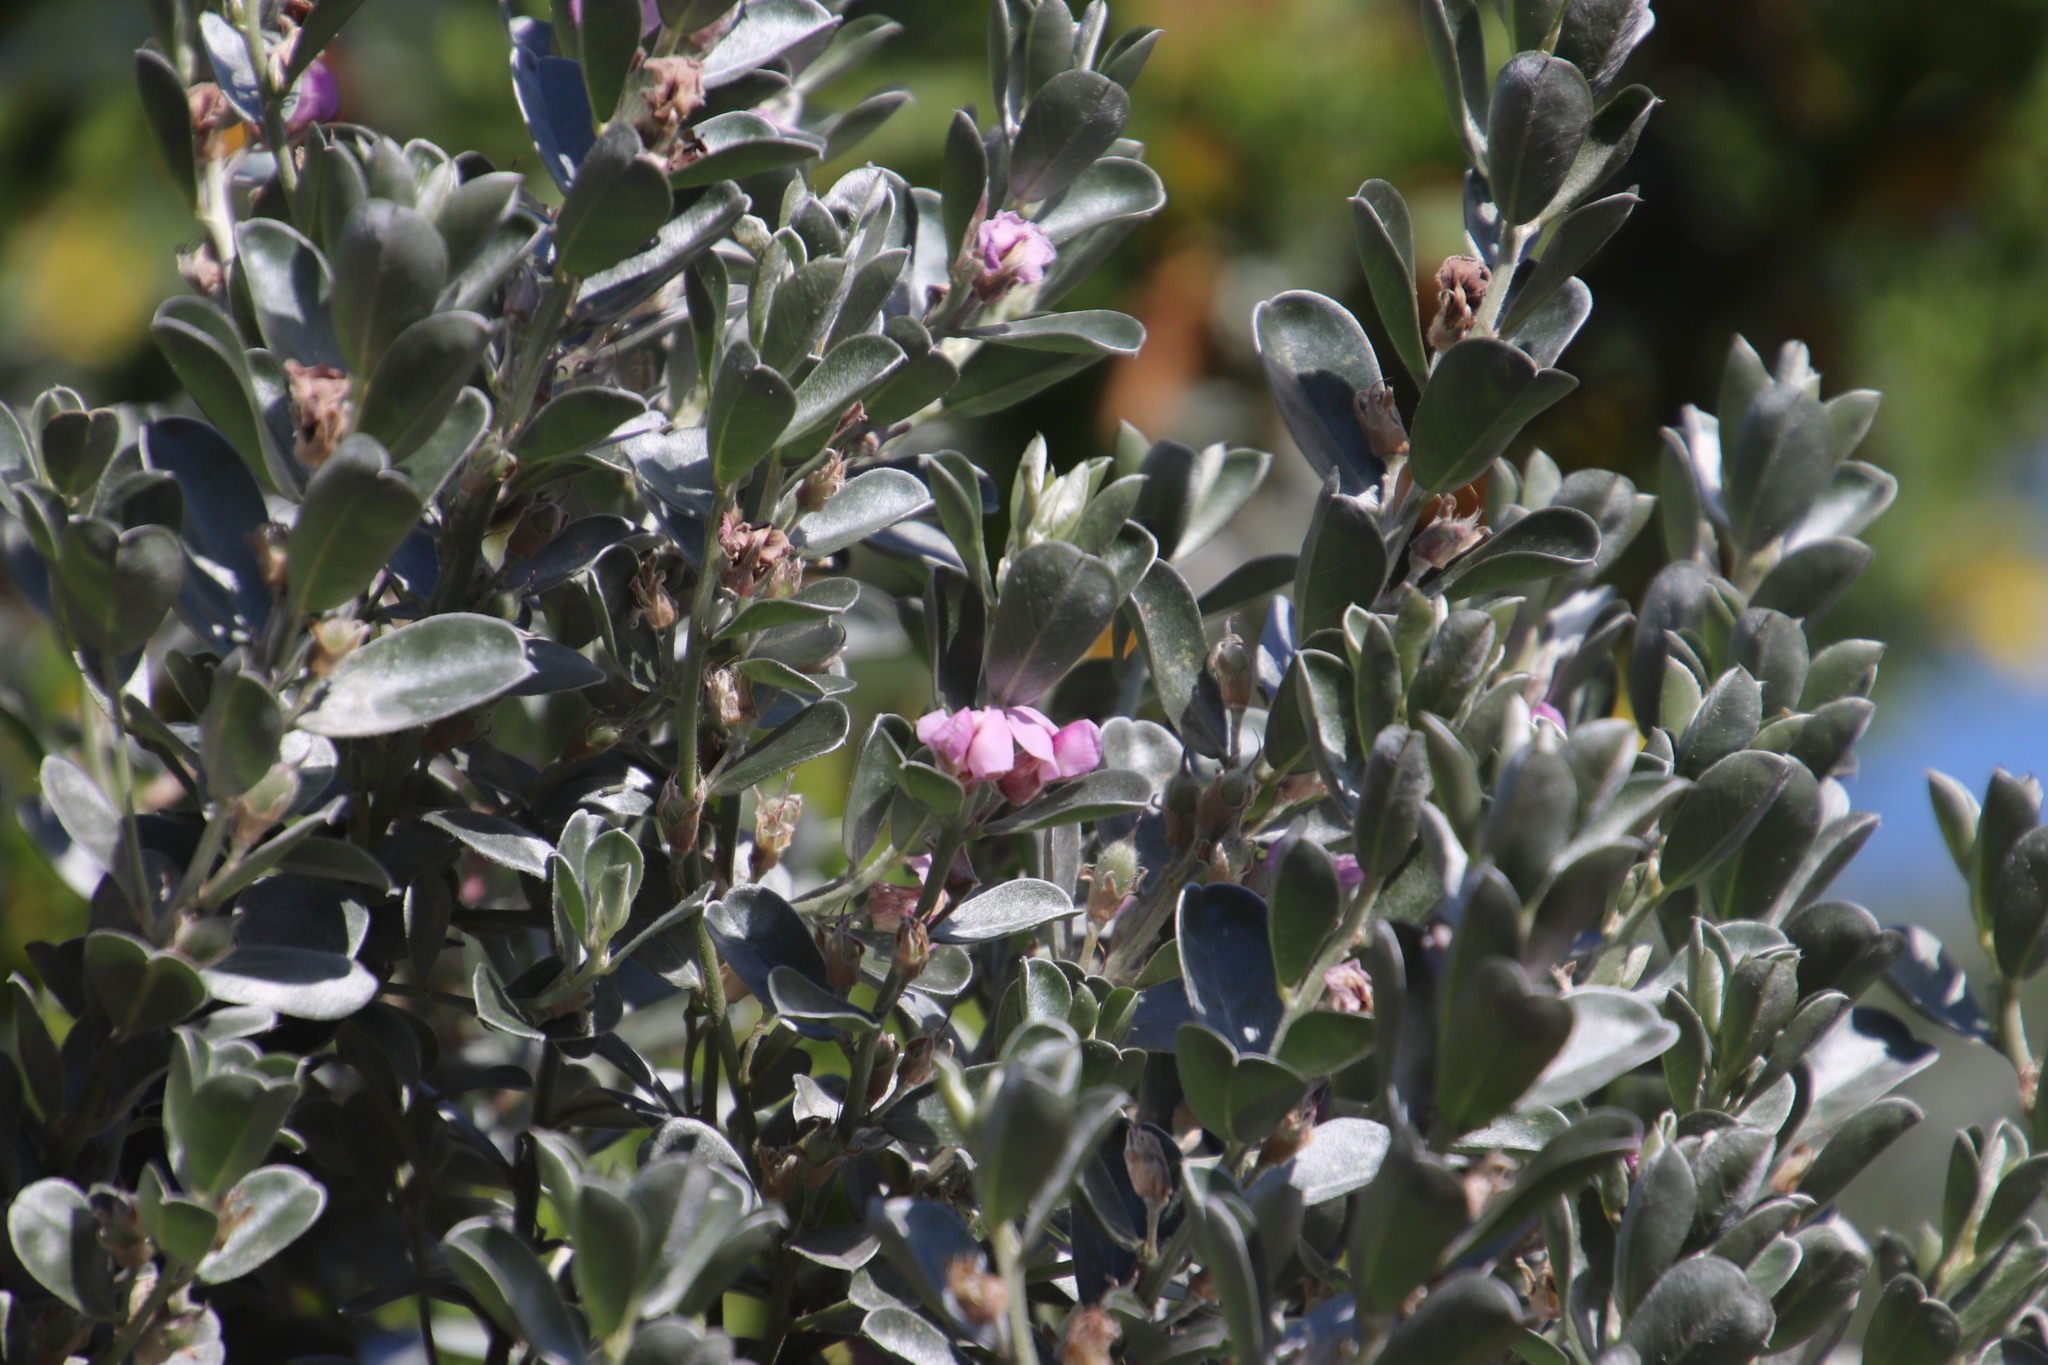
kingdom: Plantae
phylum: Tracheophyta
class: Magnoliopsida
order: Fabales
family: Fabaceae
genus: Podalyria
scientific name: Podalyria sericea
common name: Silver podalyria
